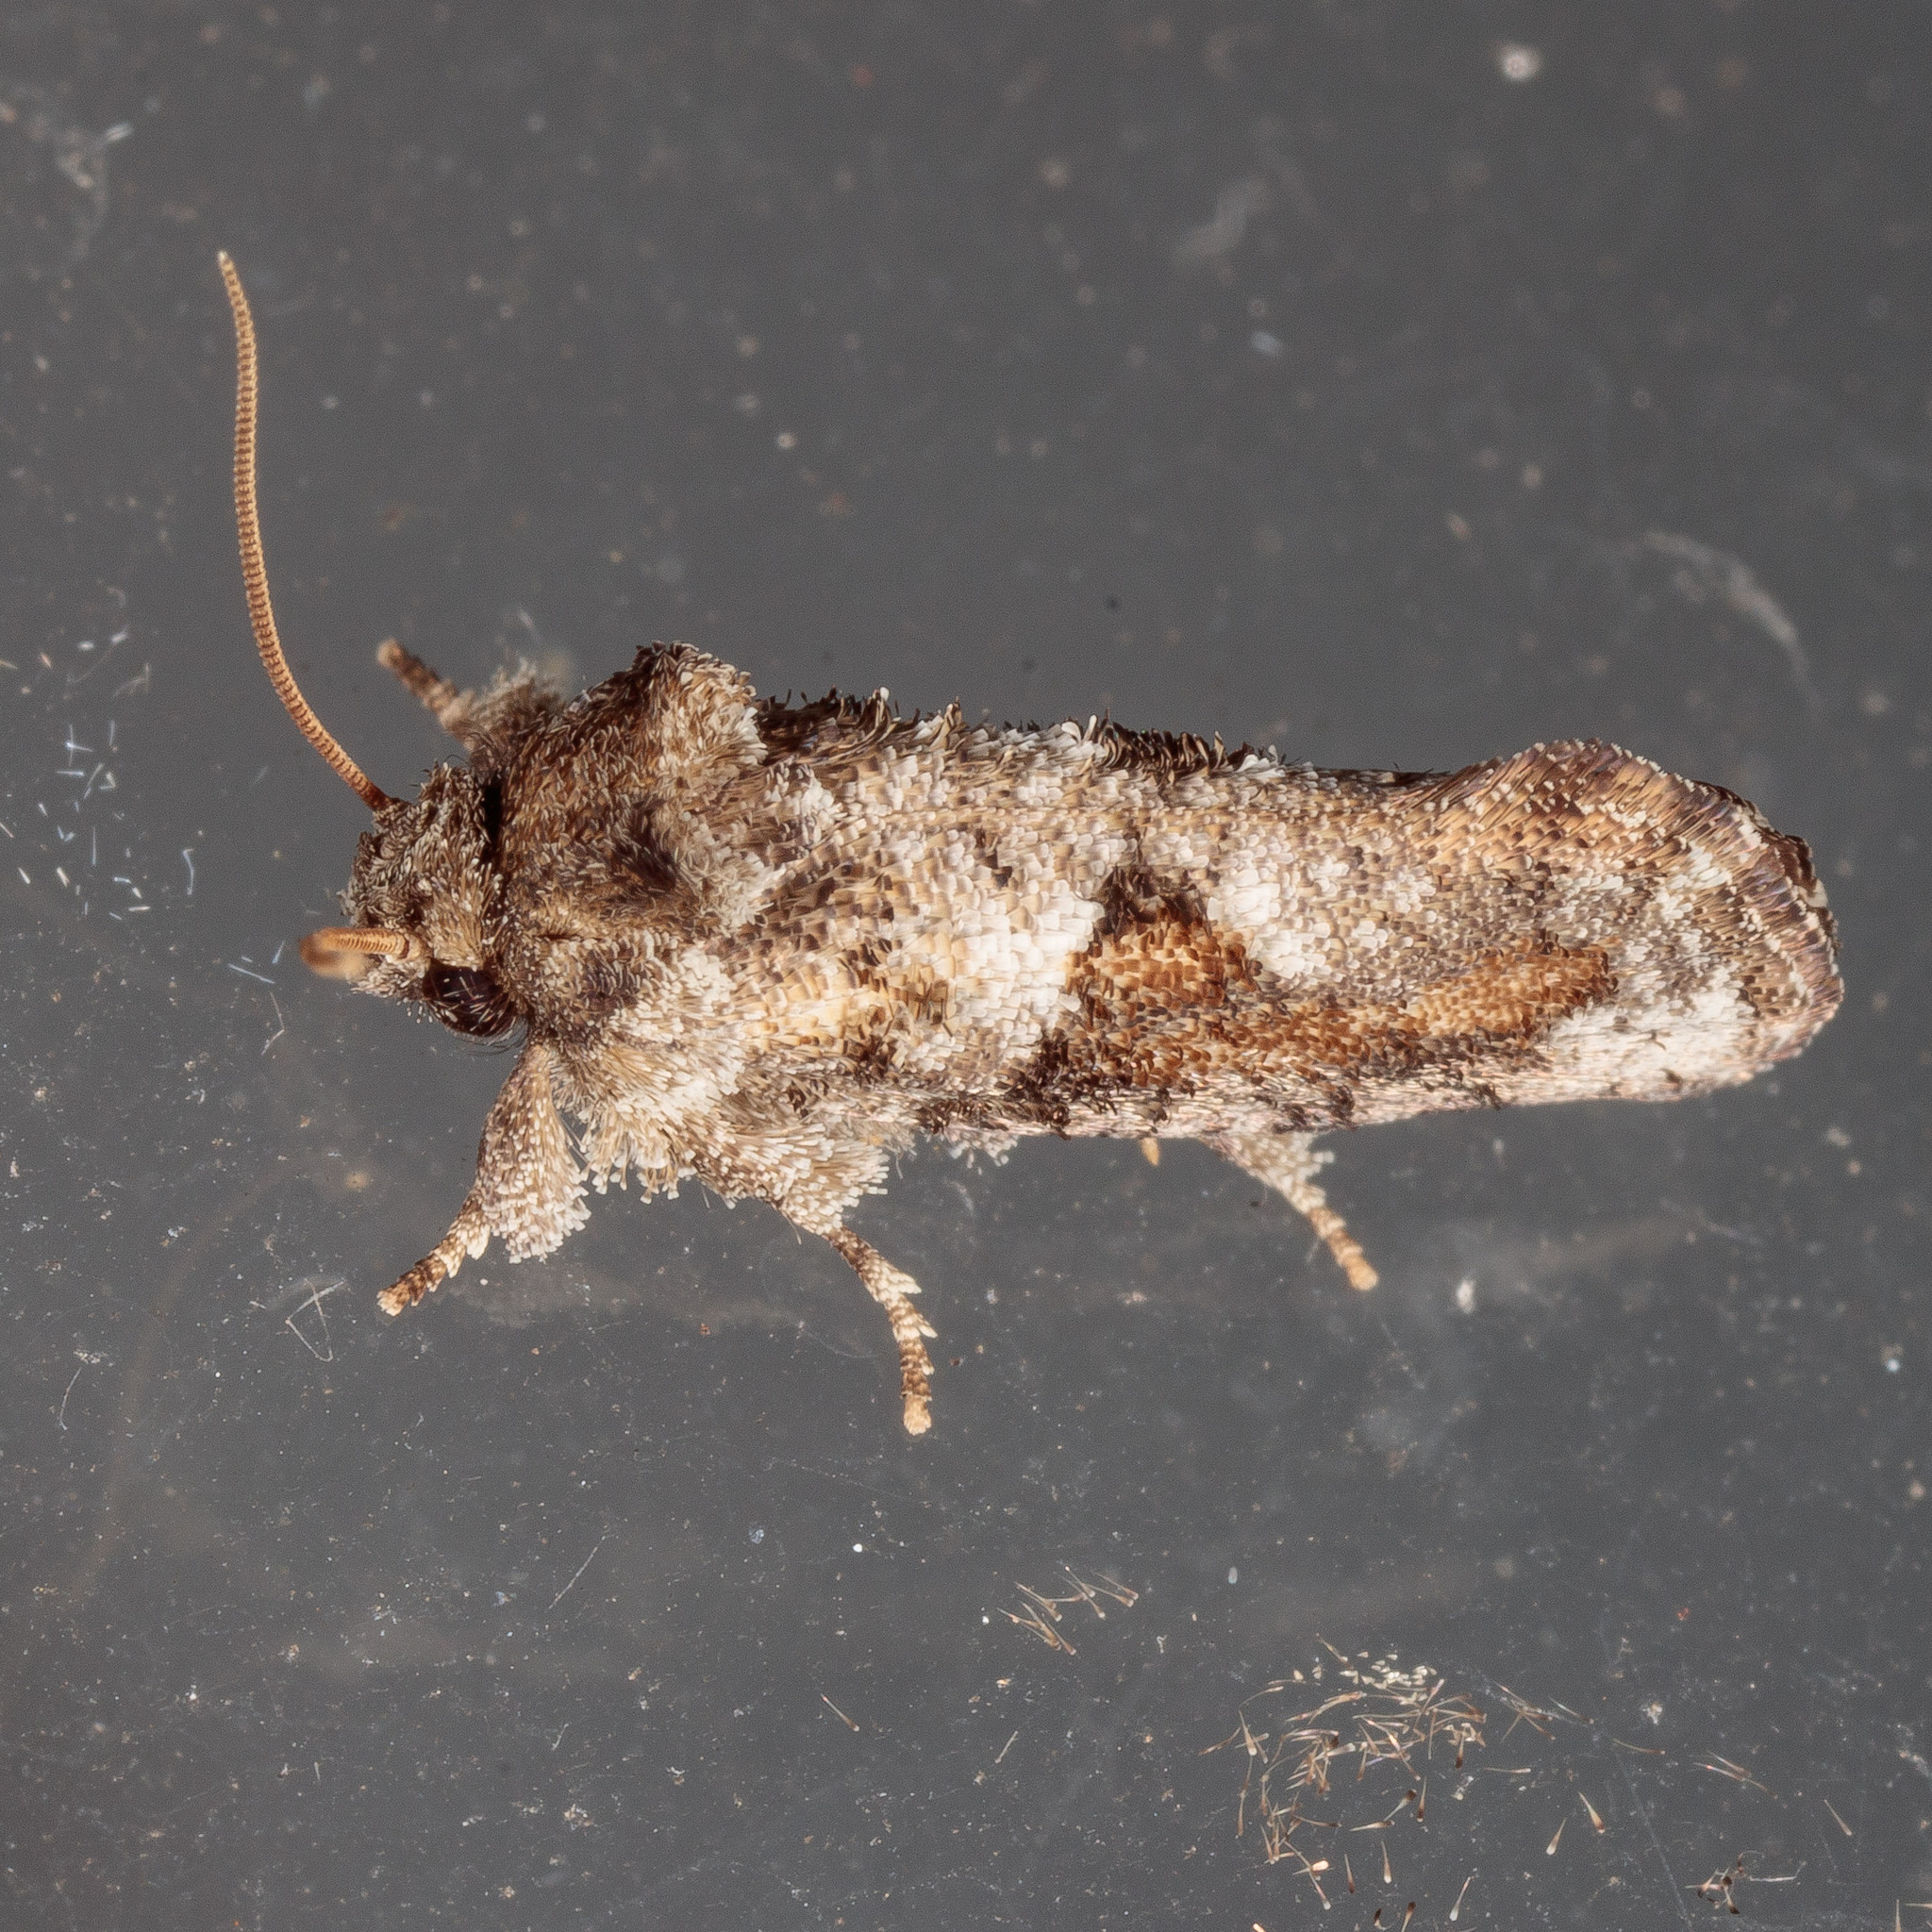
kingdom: Animalia
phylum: Arthropoda
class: Insecta
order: Lepidoptera
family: Tineidae
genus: Acrolophus
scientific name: Acrolophus piger
